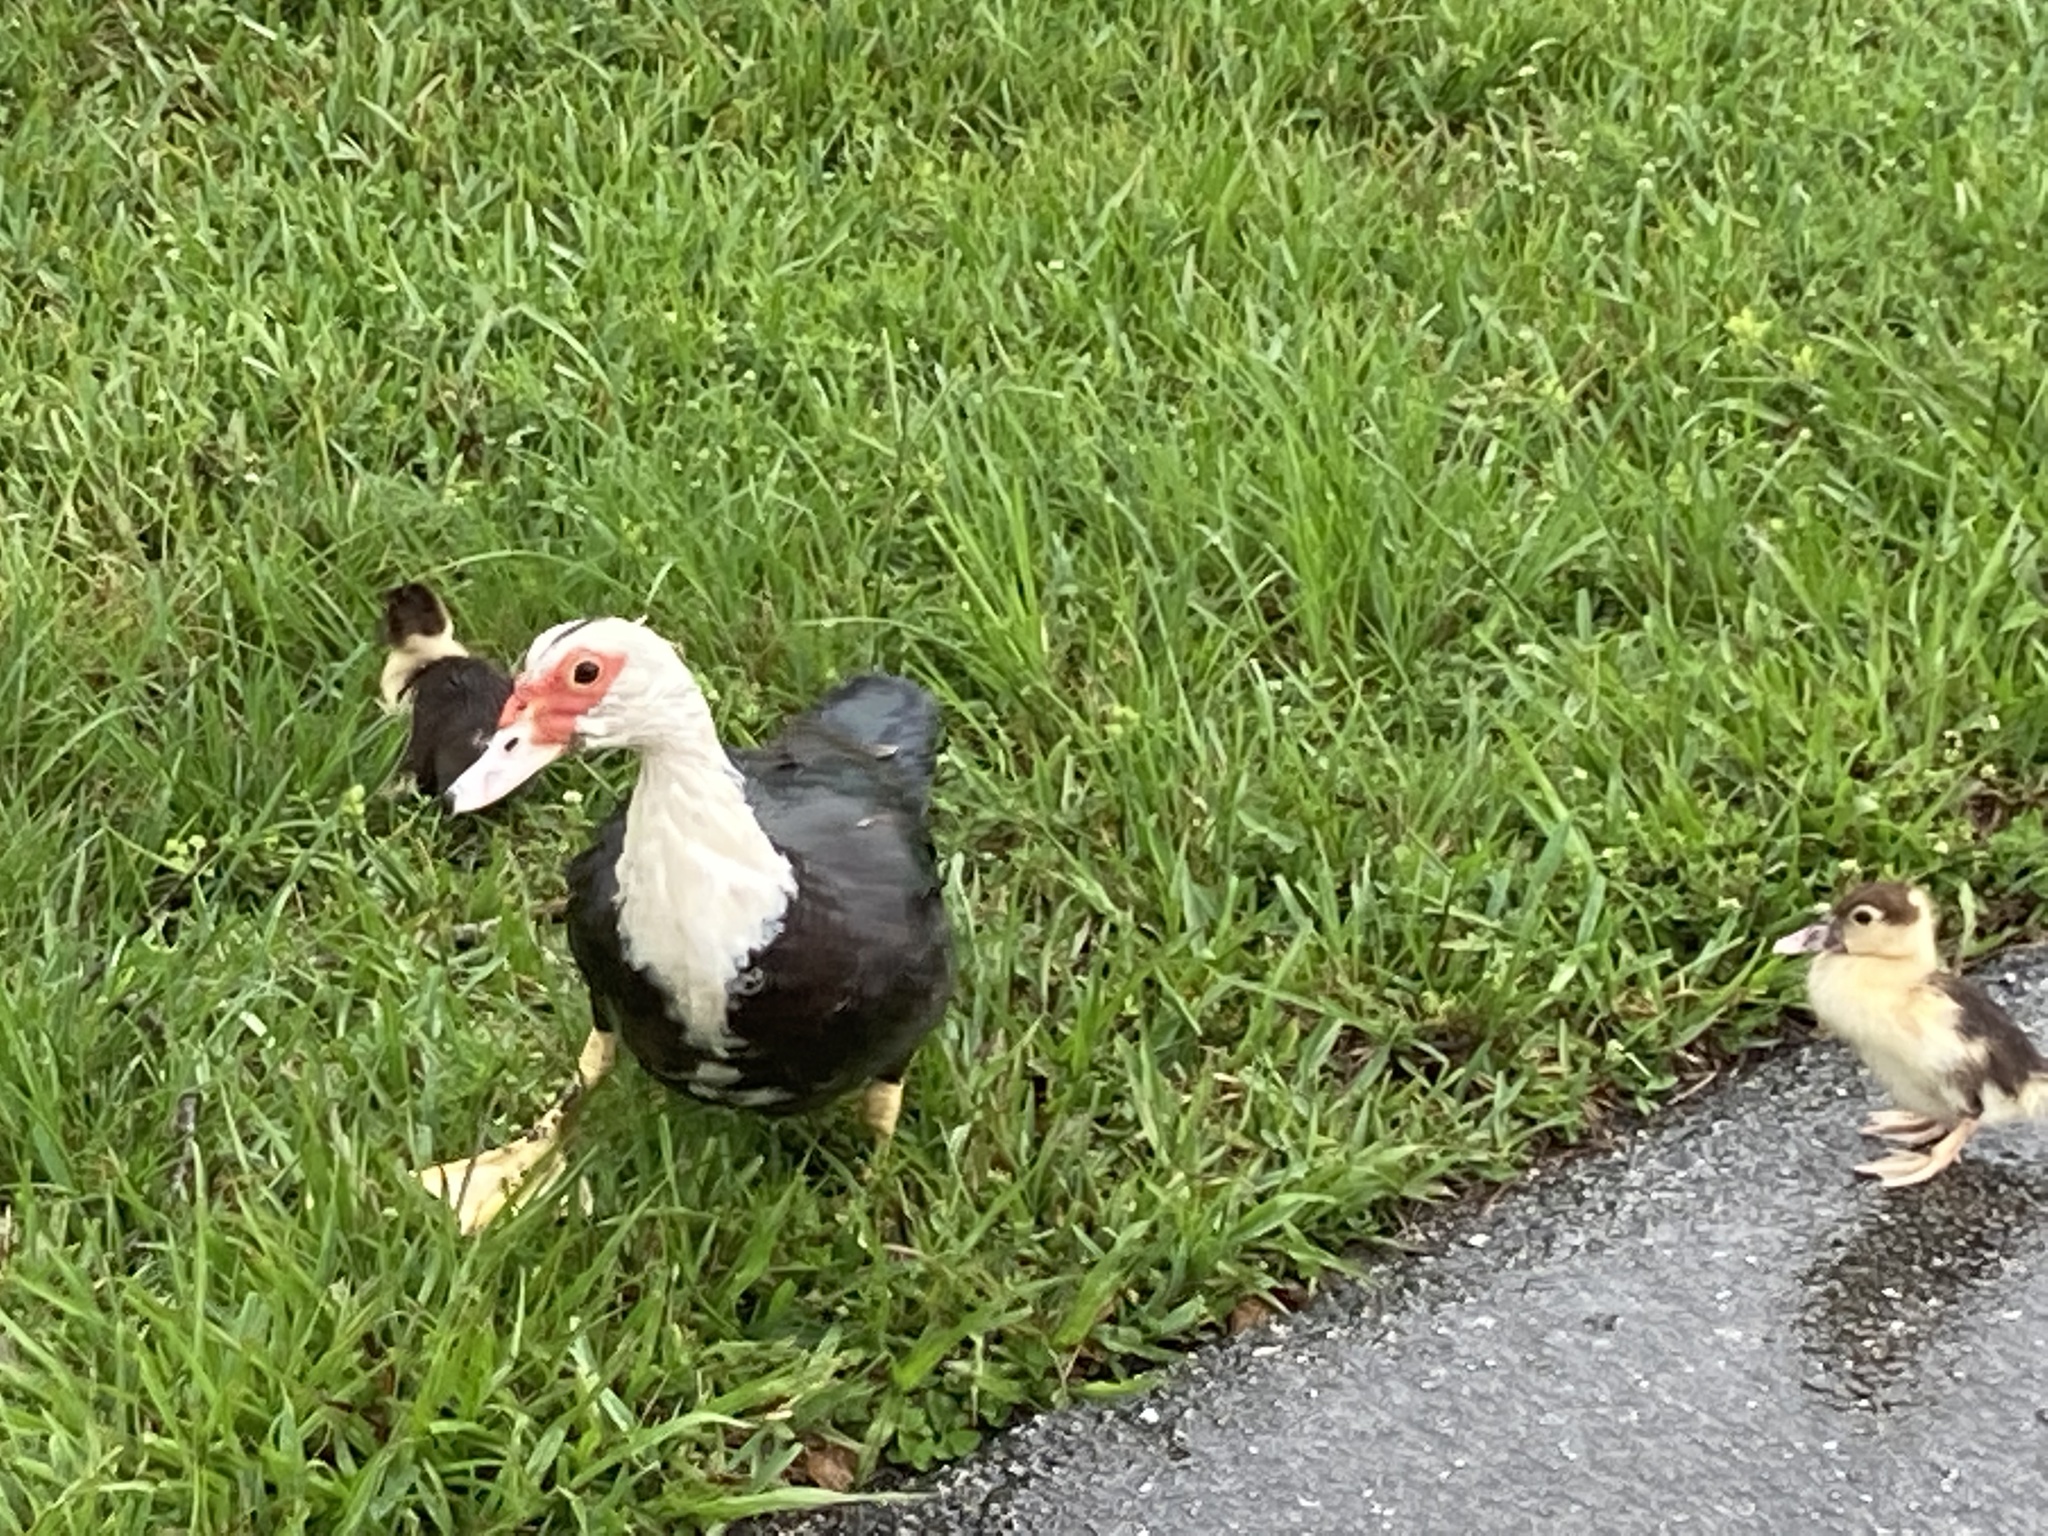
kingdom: Animalia
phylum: Chordata
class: Aves
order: Anseriformes
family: Anatidae
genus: Cairina
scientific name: Cairina moschata
